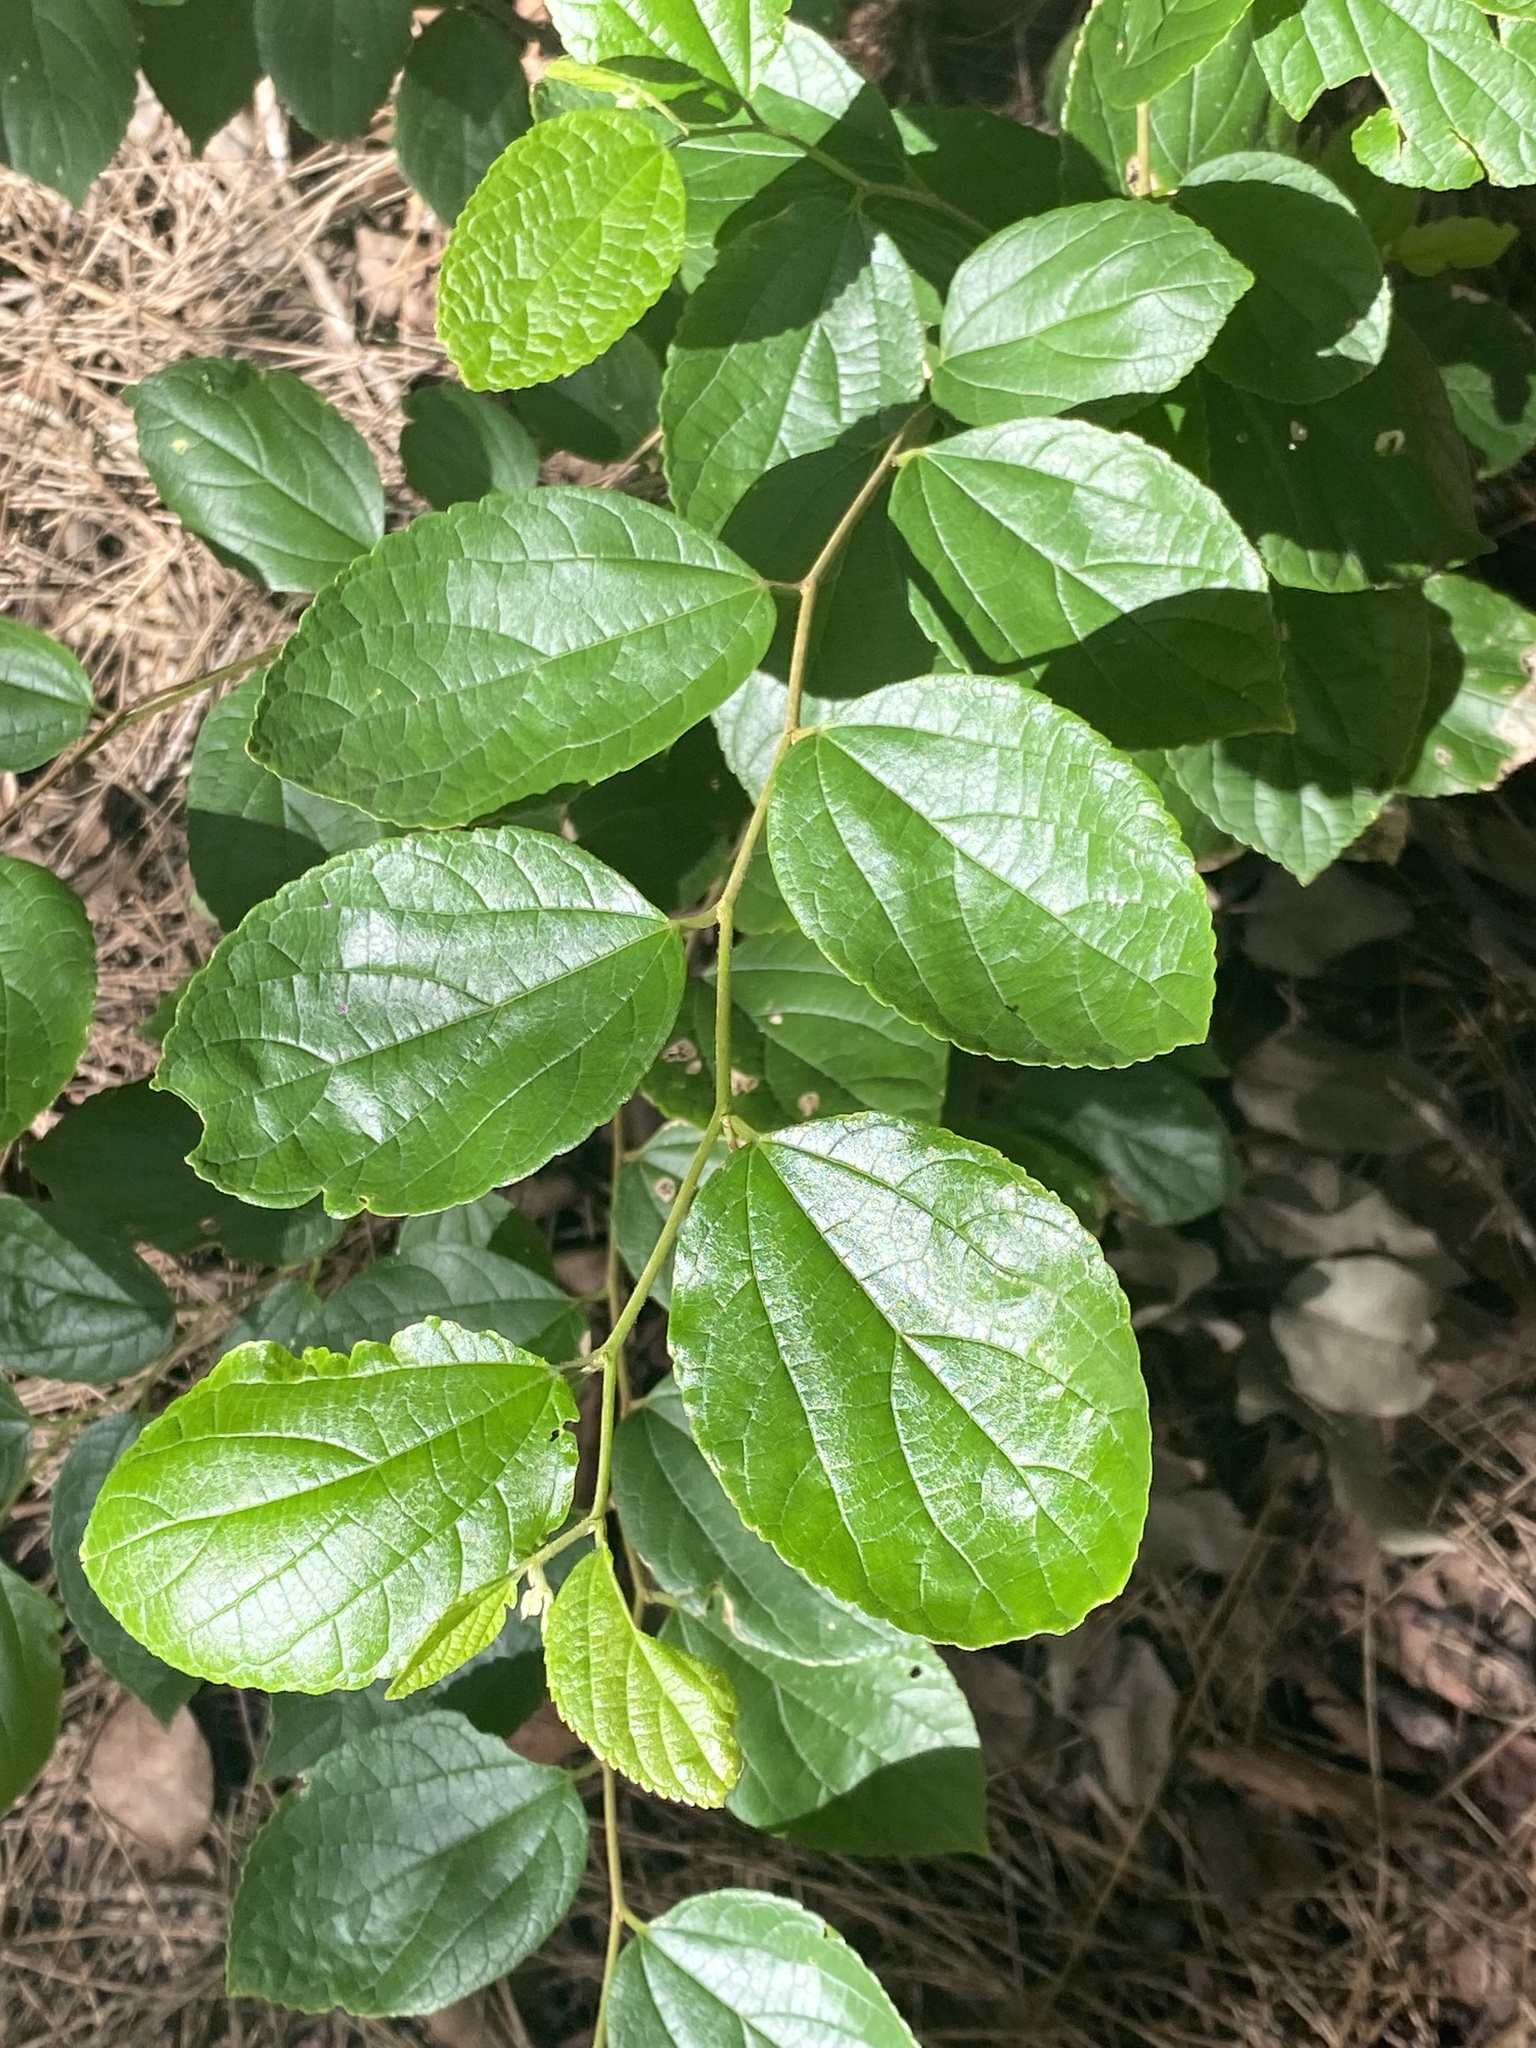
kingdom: Plantae
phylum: Tracheophyta
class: Magnoliopsida
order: Rosales
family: Cannabaceae
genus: Celtis
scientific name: Celtis sinensis
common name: Chinese hackberry
